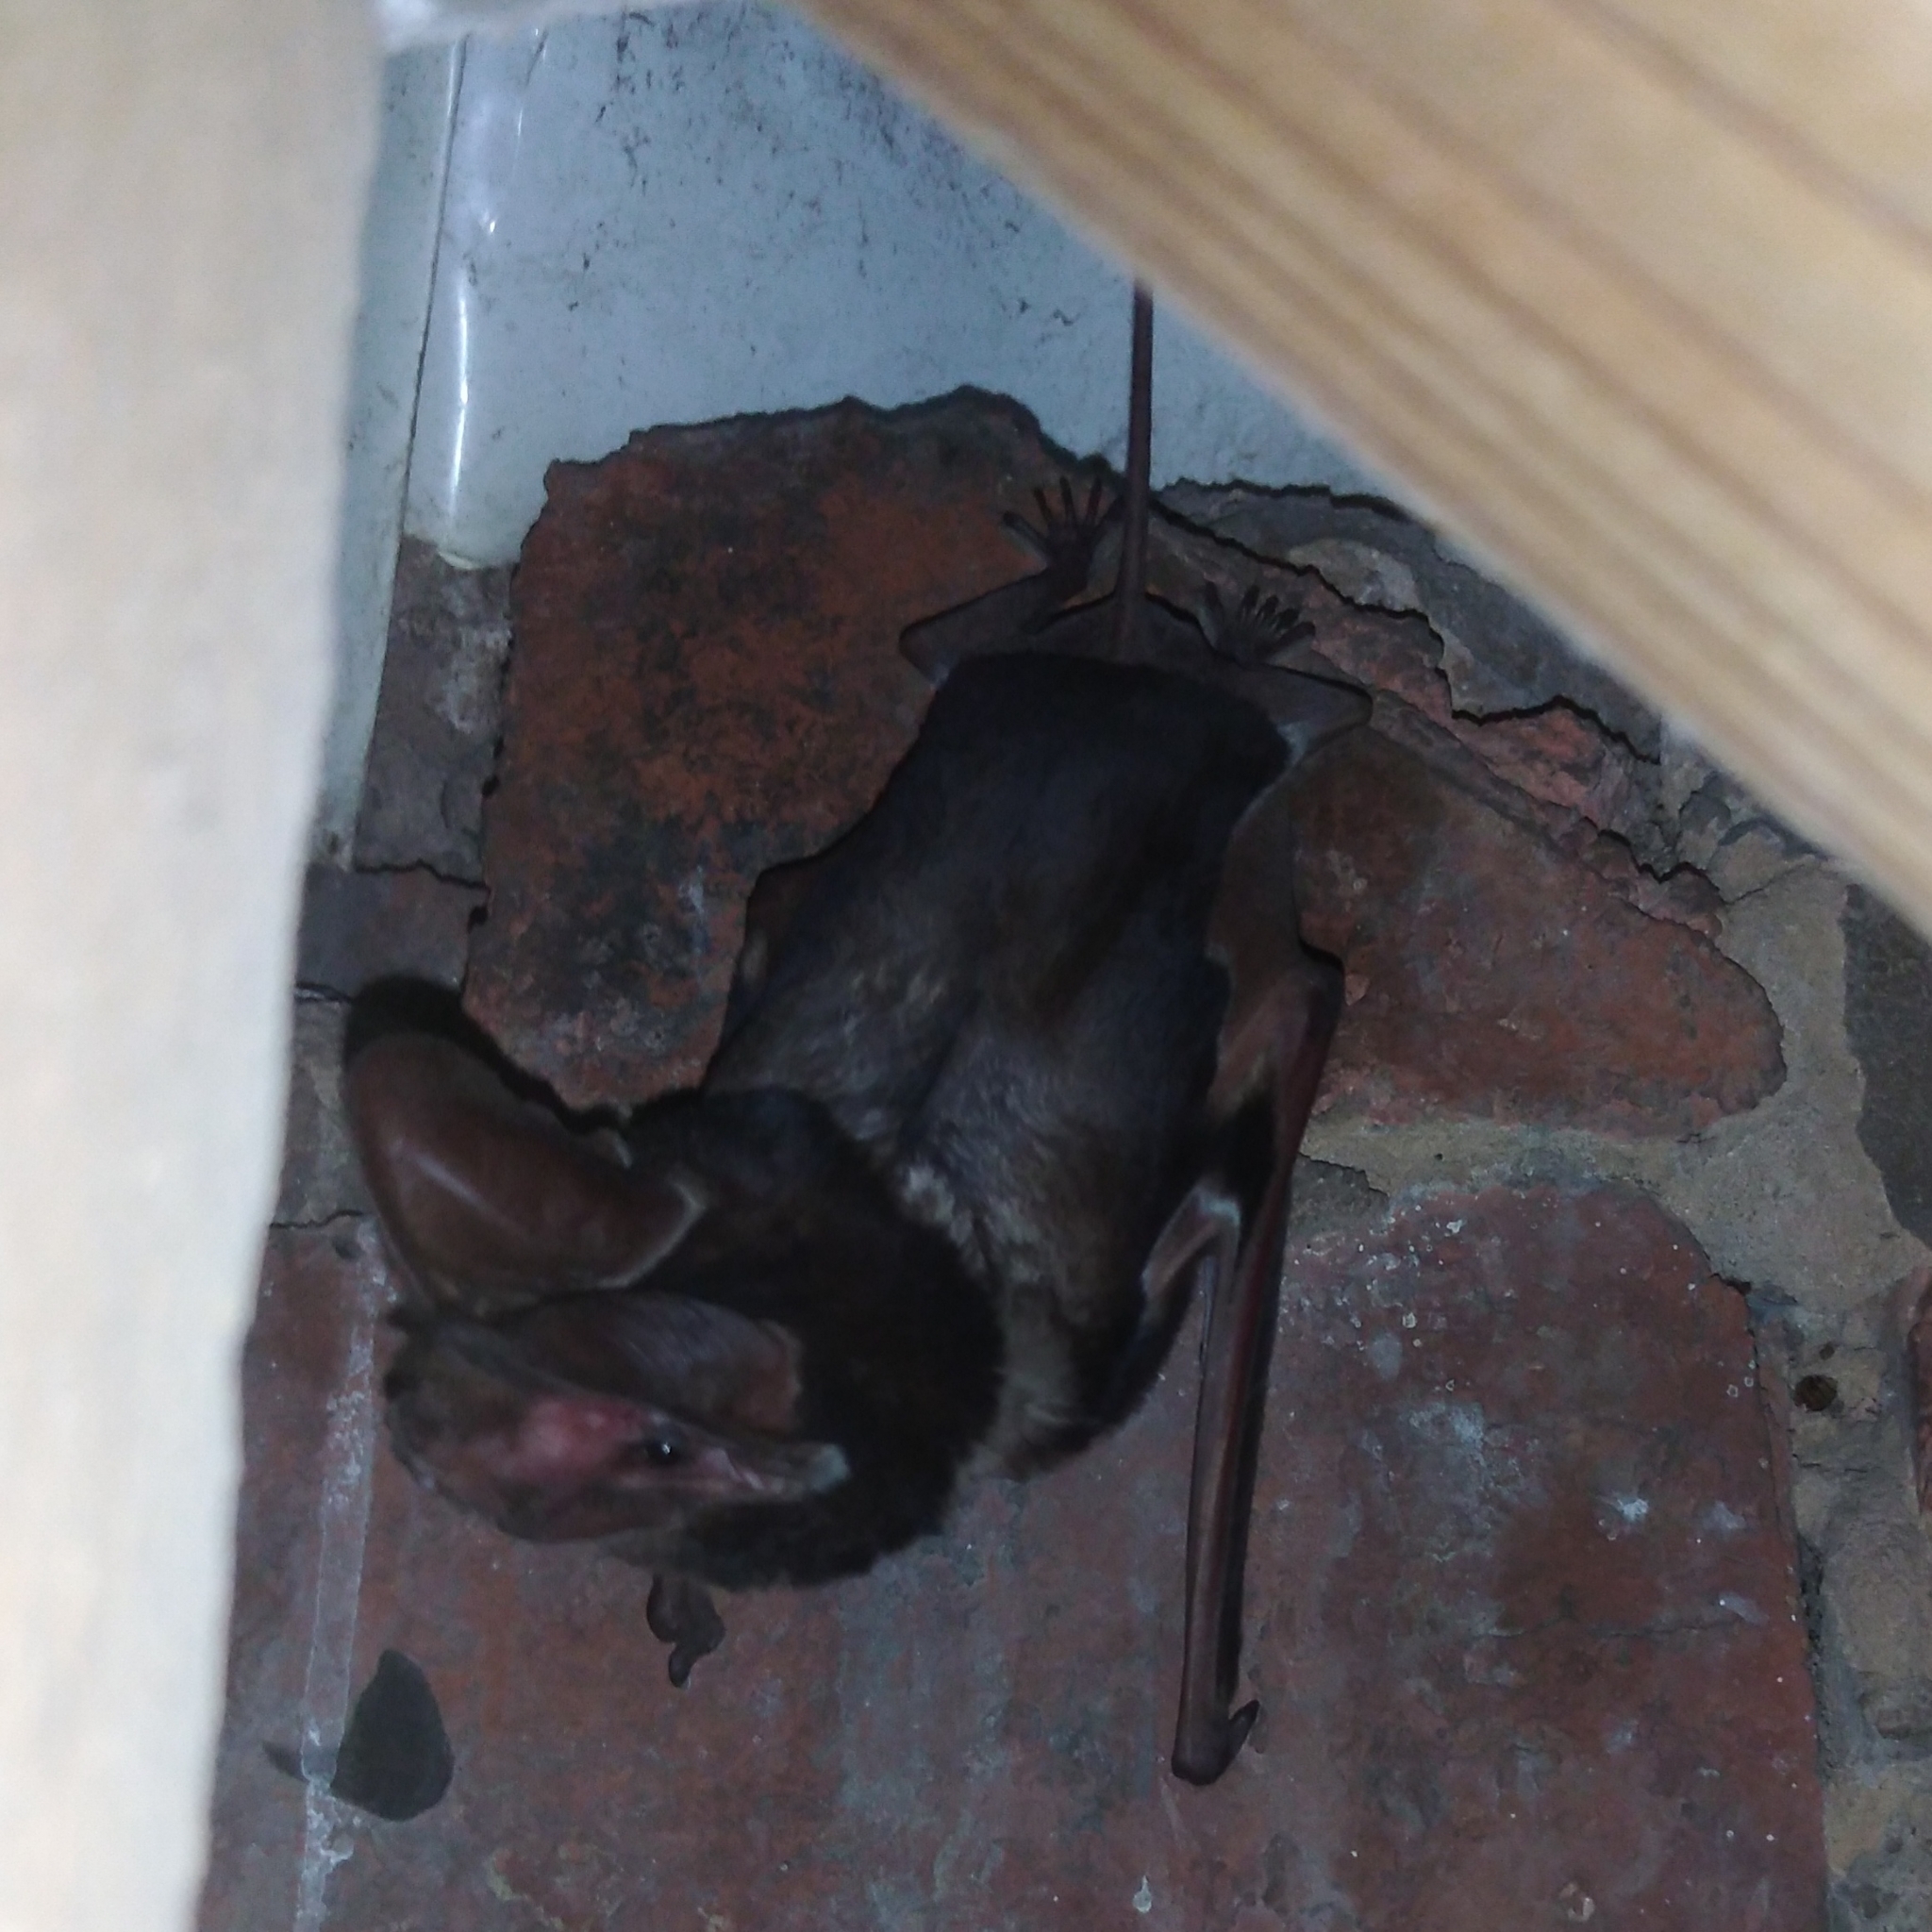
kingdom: Animalia
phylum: Chordata
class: Mammalia
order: Chiroptera
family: Molossidae
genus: Otomops
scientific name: Otomops martiensseni
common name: Large-eared free-tailed bat
